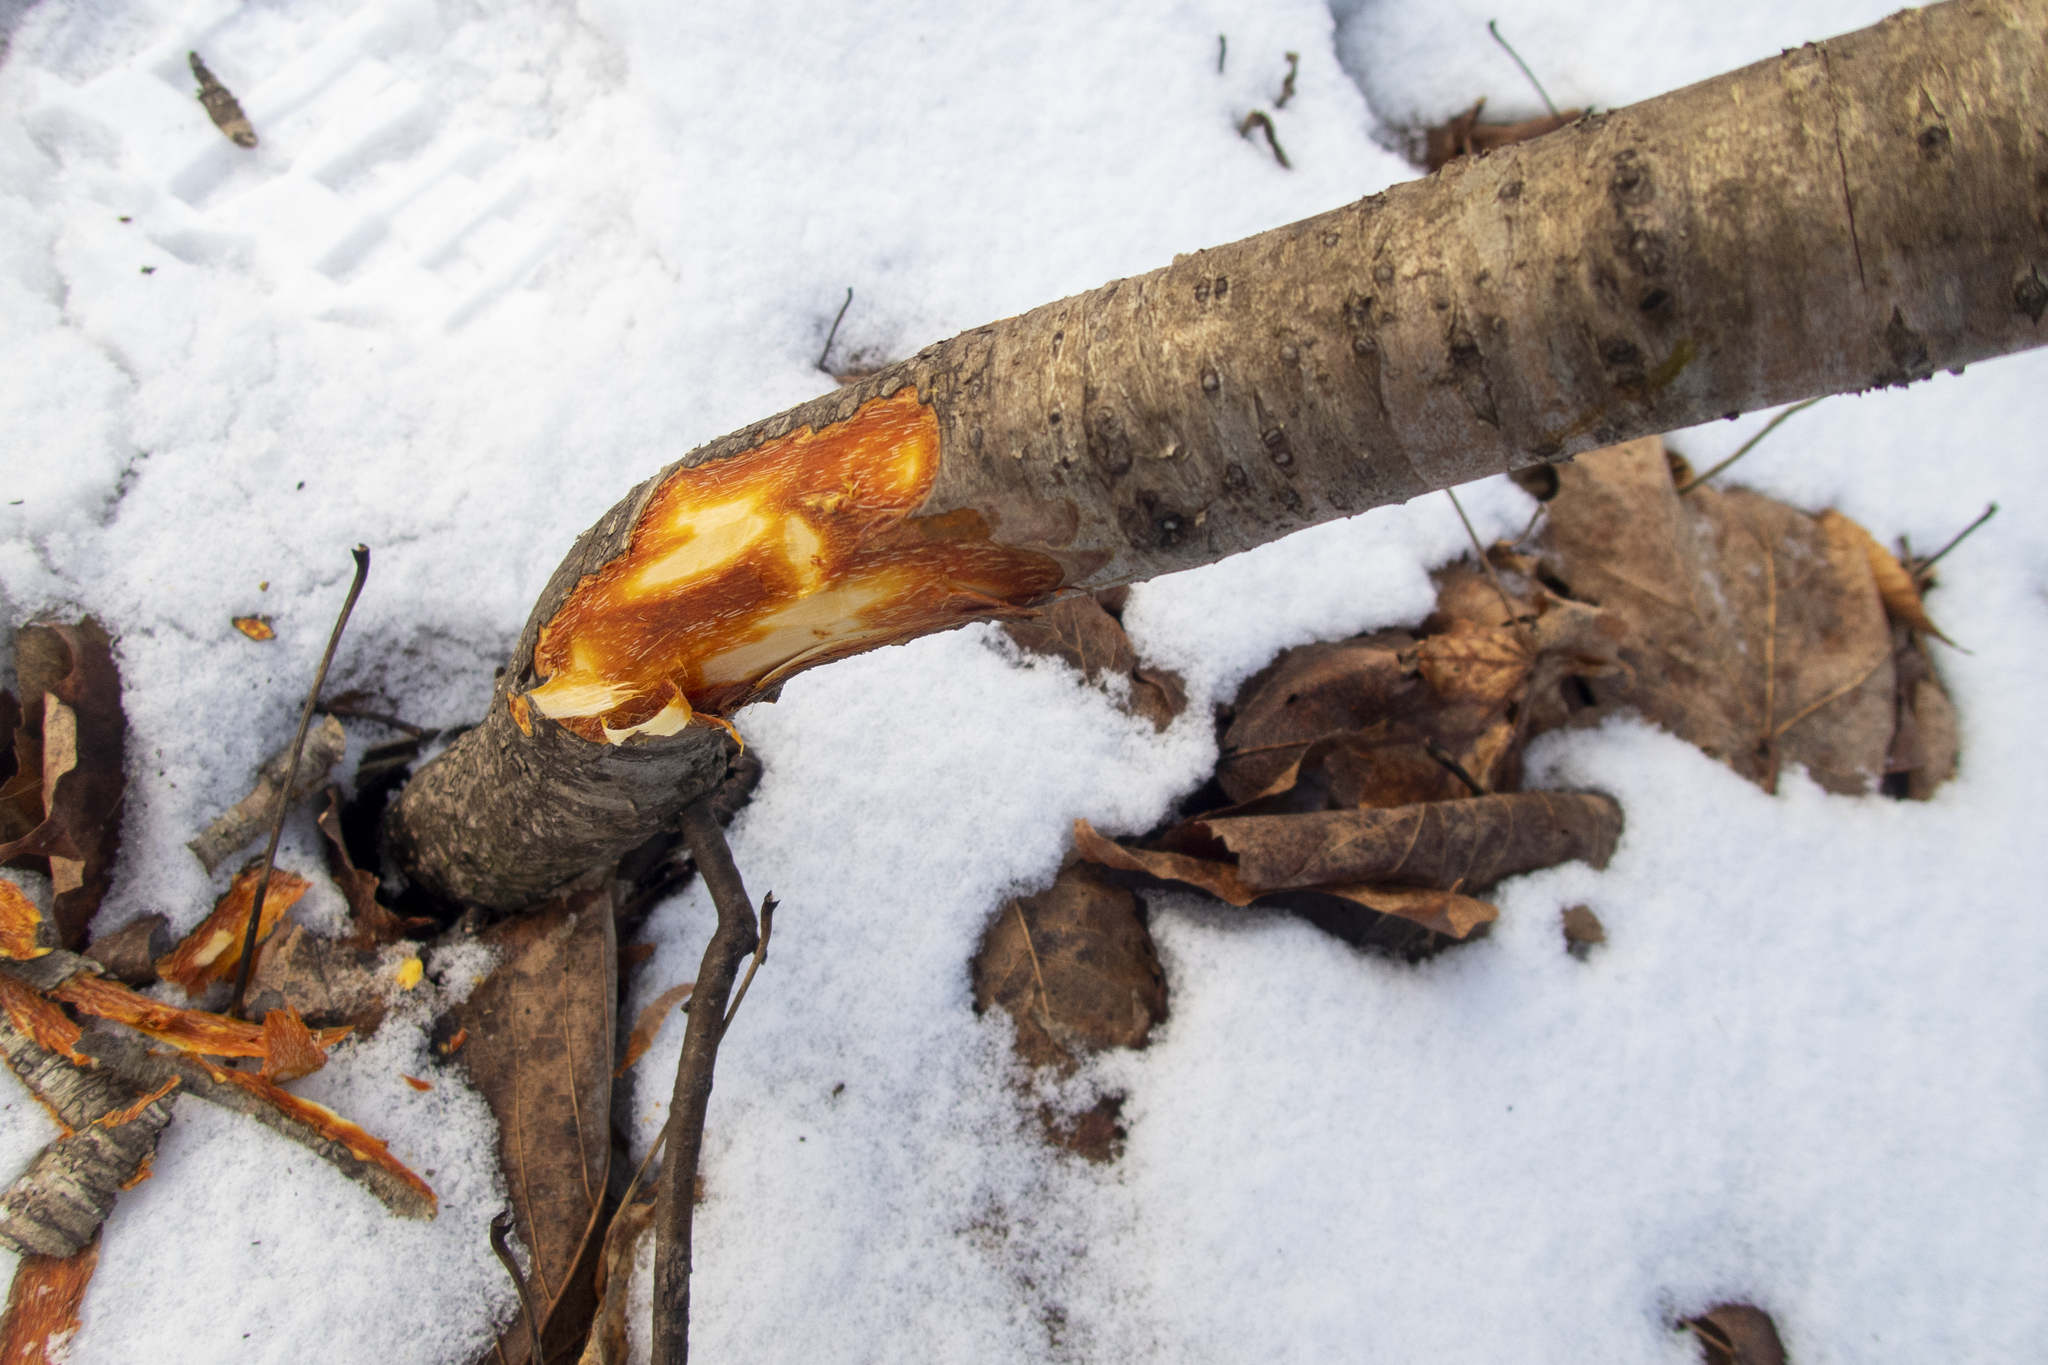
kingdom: Plantae
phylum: Tracheophyta
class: Magnoliopsida
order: Rosales
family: Rhamnaceae
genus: Rhamnus
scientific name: Rhamnus cathartica
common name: Common buckthorn
